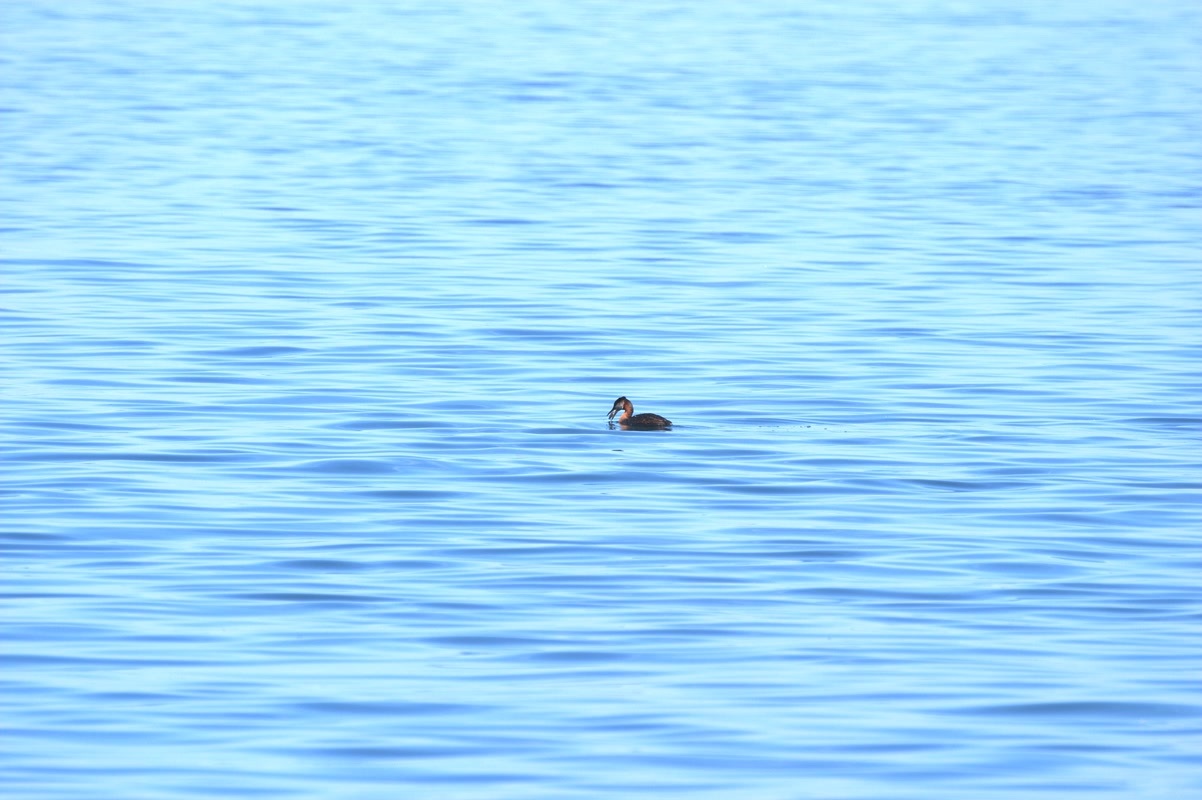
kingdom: Animalia
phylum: Chordata
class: Aves
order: Podicipediformes
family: Podicipedidae
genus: Podiceps
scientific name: Podiceps grisegena
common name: Red-necked grebe
